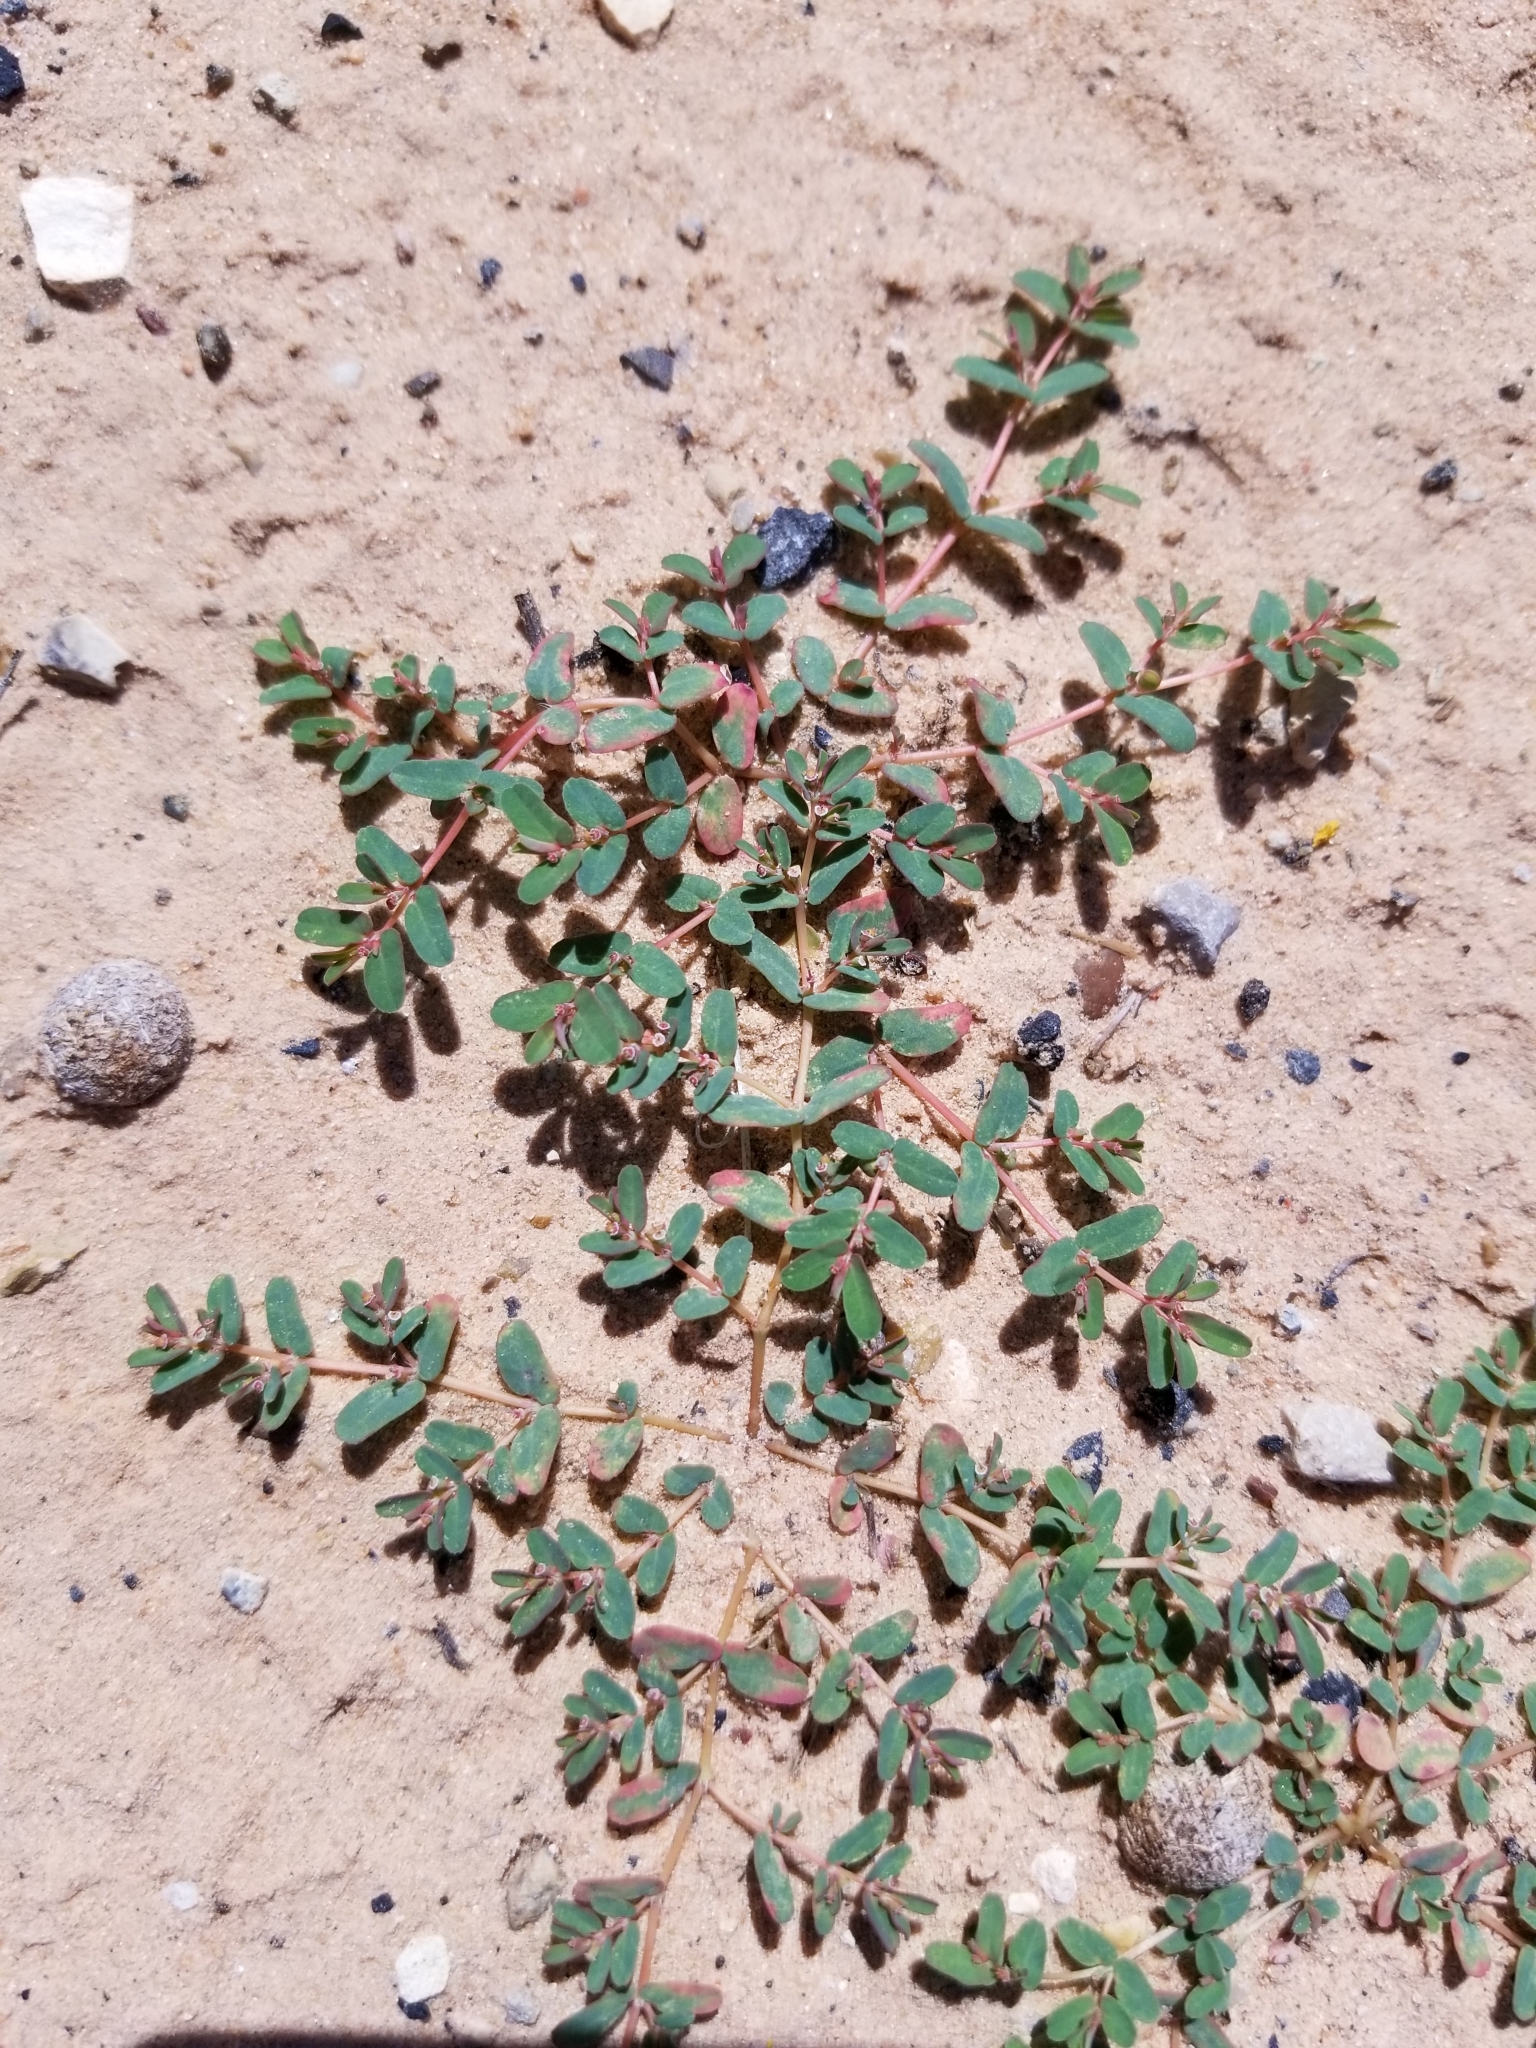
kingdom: Plantae
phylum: Tracheophyta
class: Magnoliopsida
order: Malpighiales
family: Euphorbiaceae
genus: Euphorbia
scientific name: Euphorbia glyptosperma
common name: Corrugate-seeded spurge
